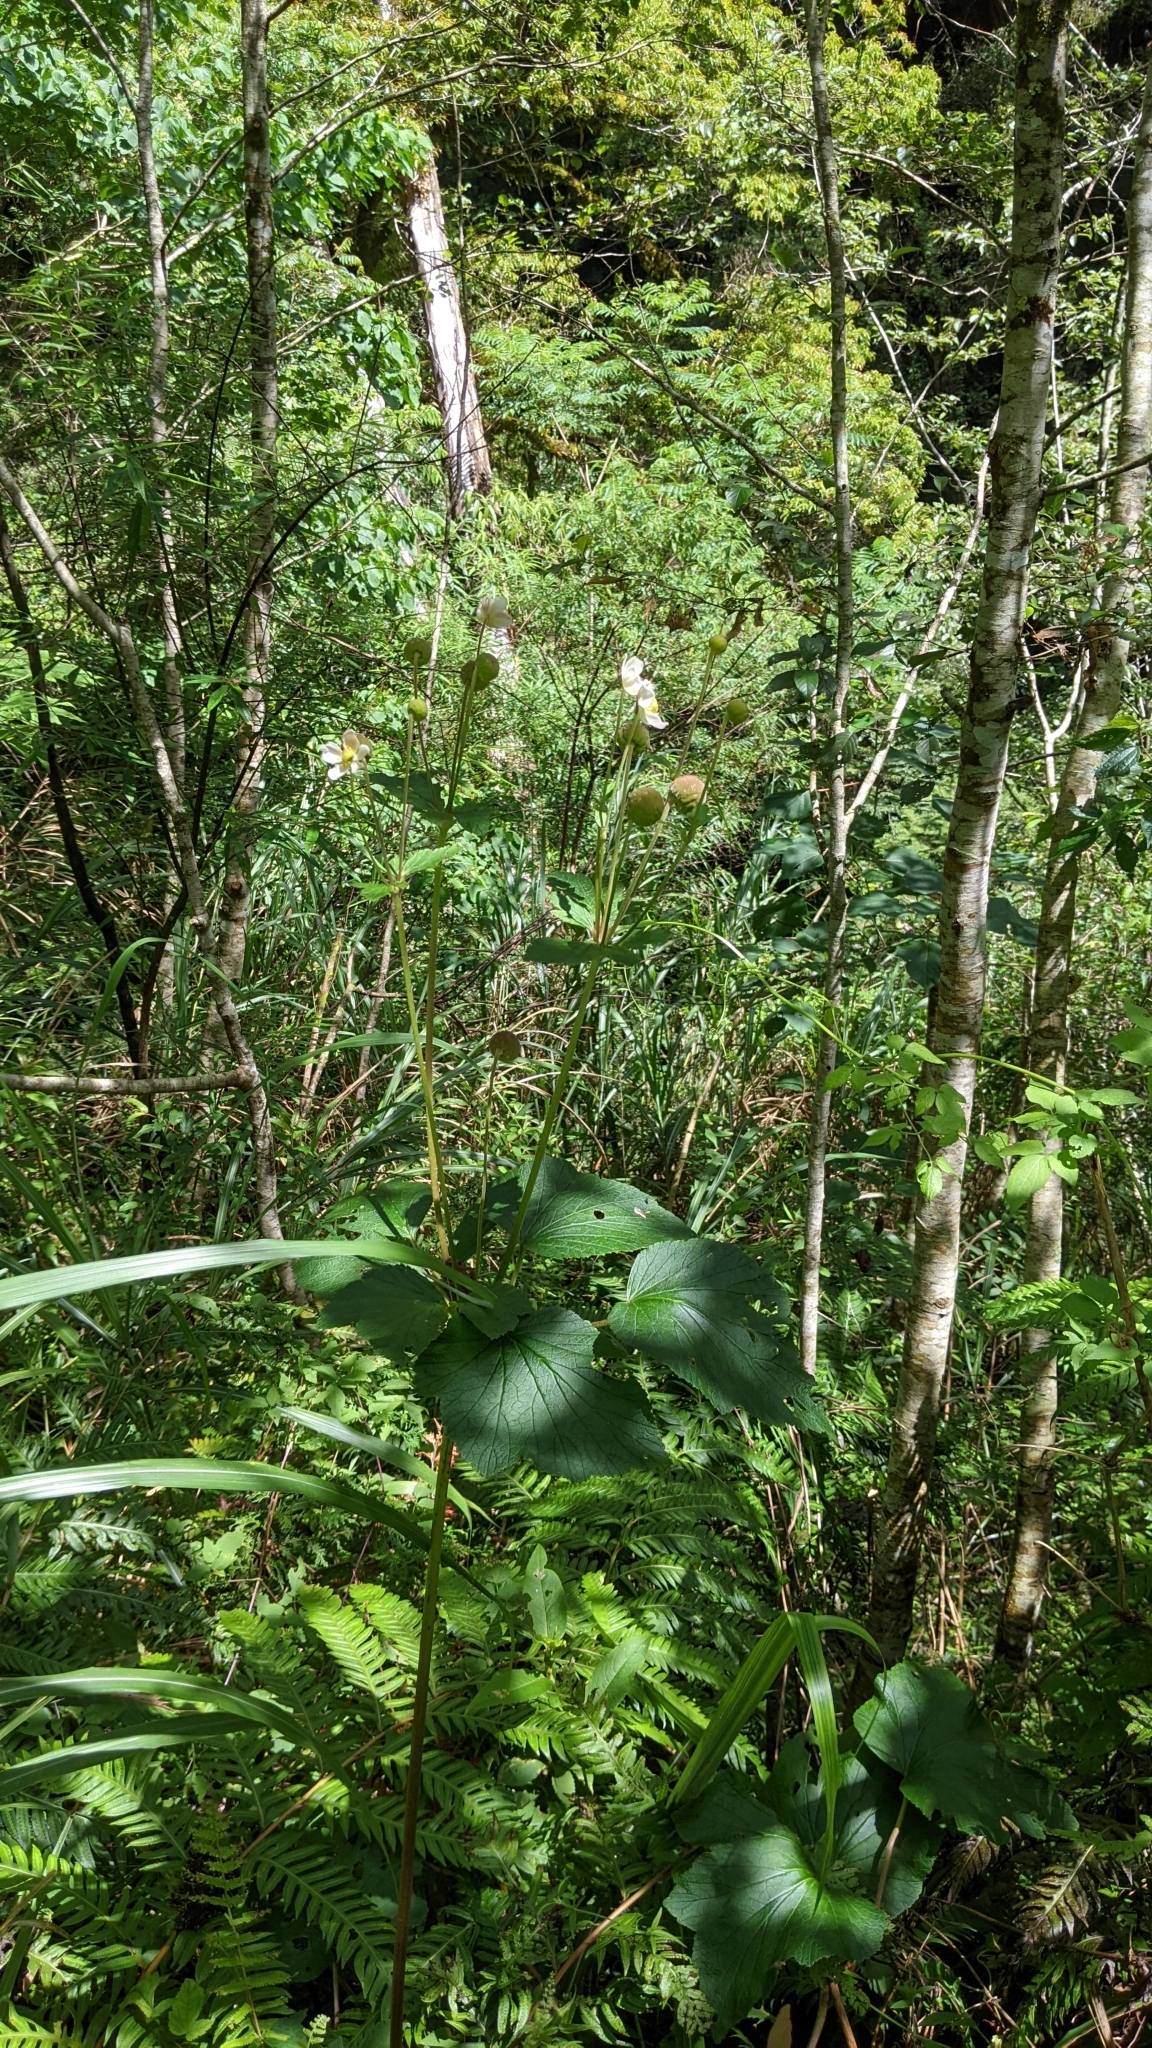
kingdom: Plantae
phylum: Tracheophyta
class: Magnoliopsida
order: Ranunculales
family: Ranunculaceae
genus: Eriocapitella
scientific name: Eriocapitella vitifolia
